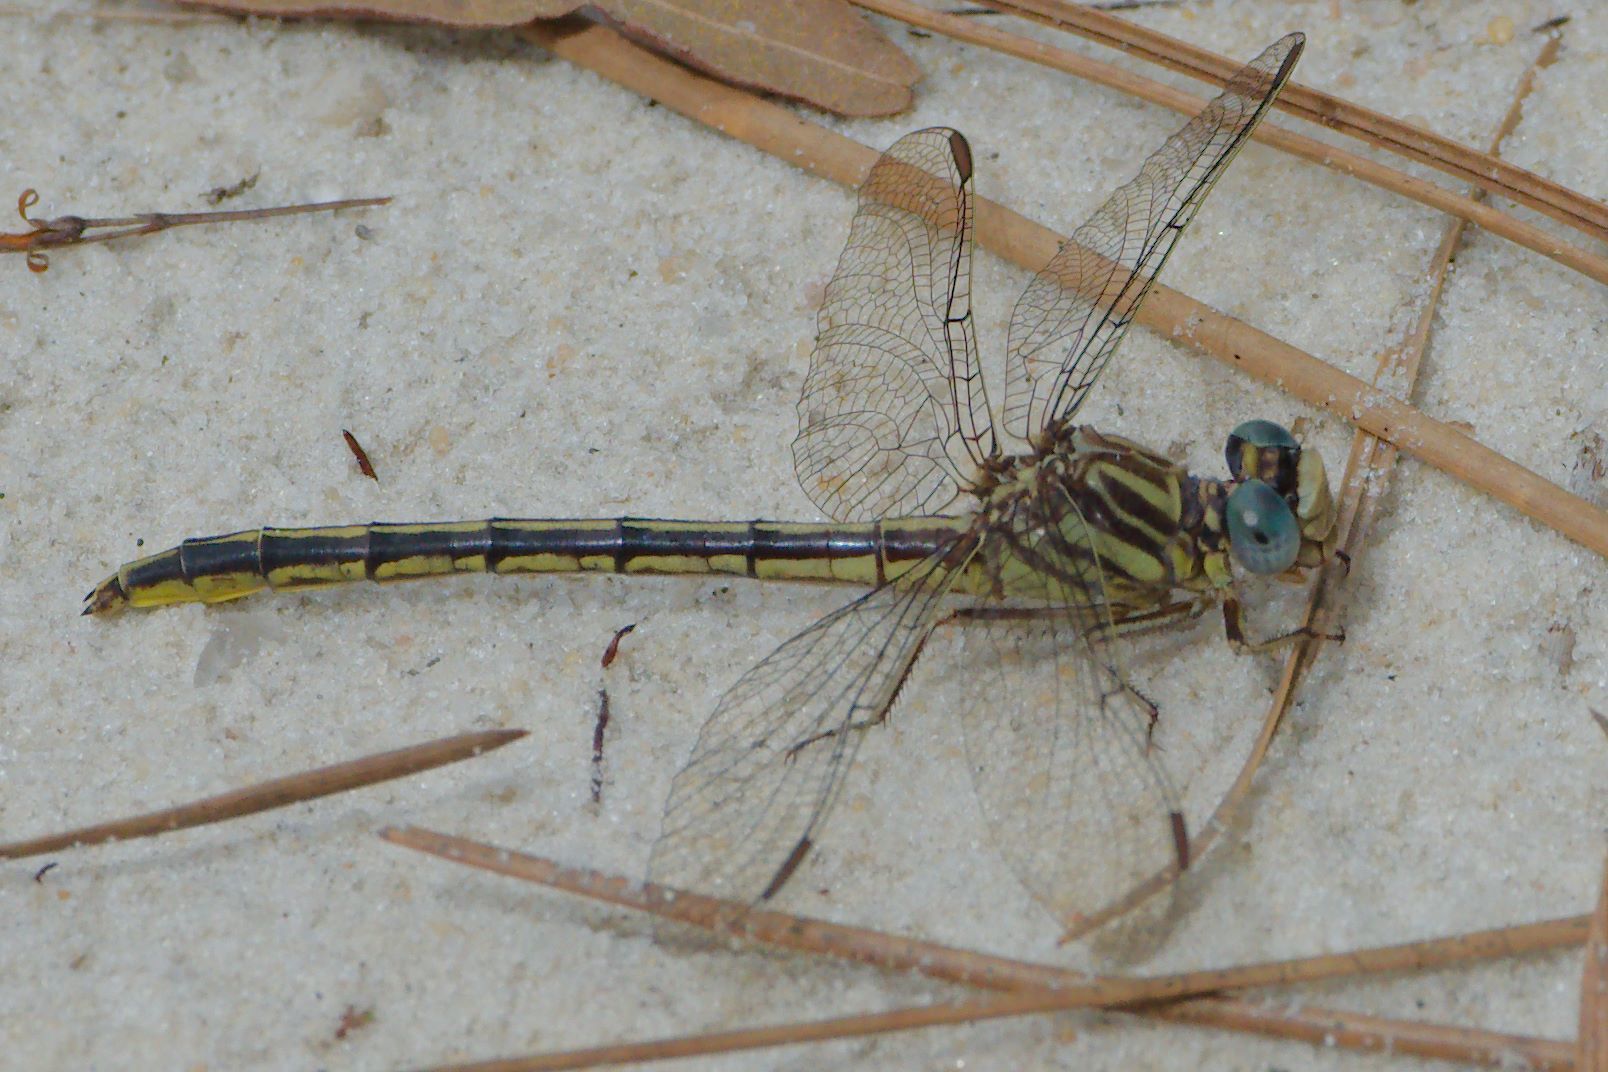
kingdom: Animalia
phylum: Arthropoda
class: Insecta
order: Odonata
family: Gomphidae
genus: Phanogomphus
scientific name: Phanogomphus hodgesi
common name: Hodges' clubtail
